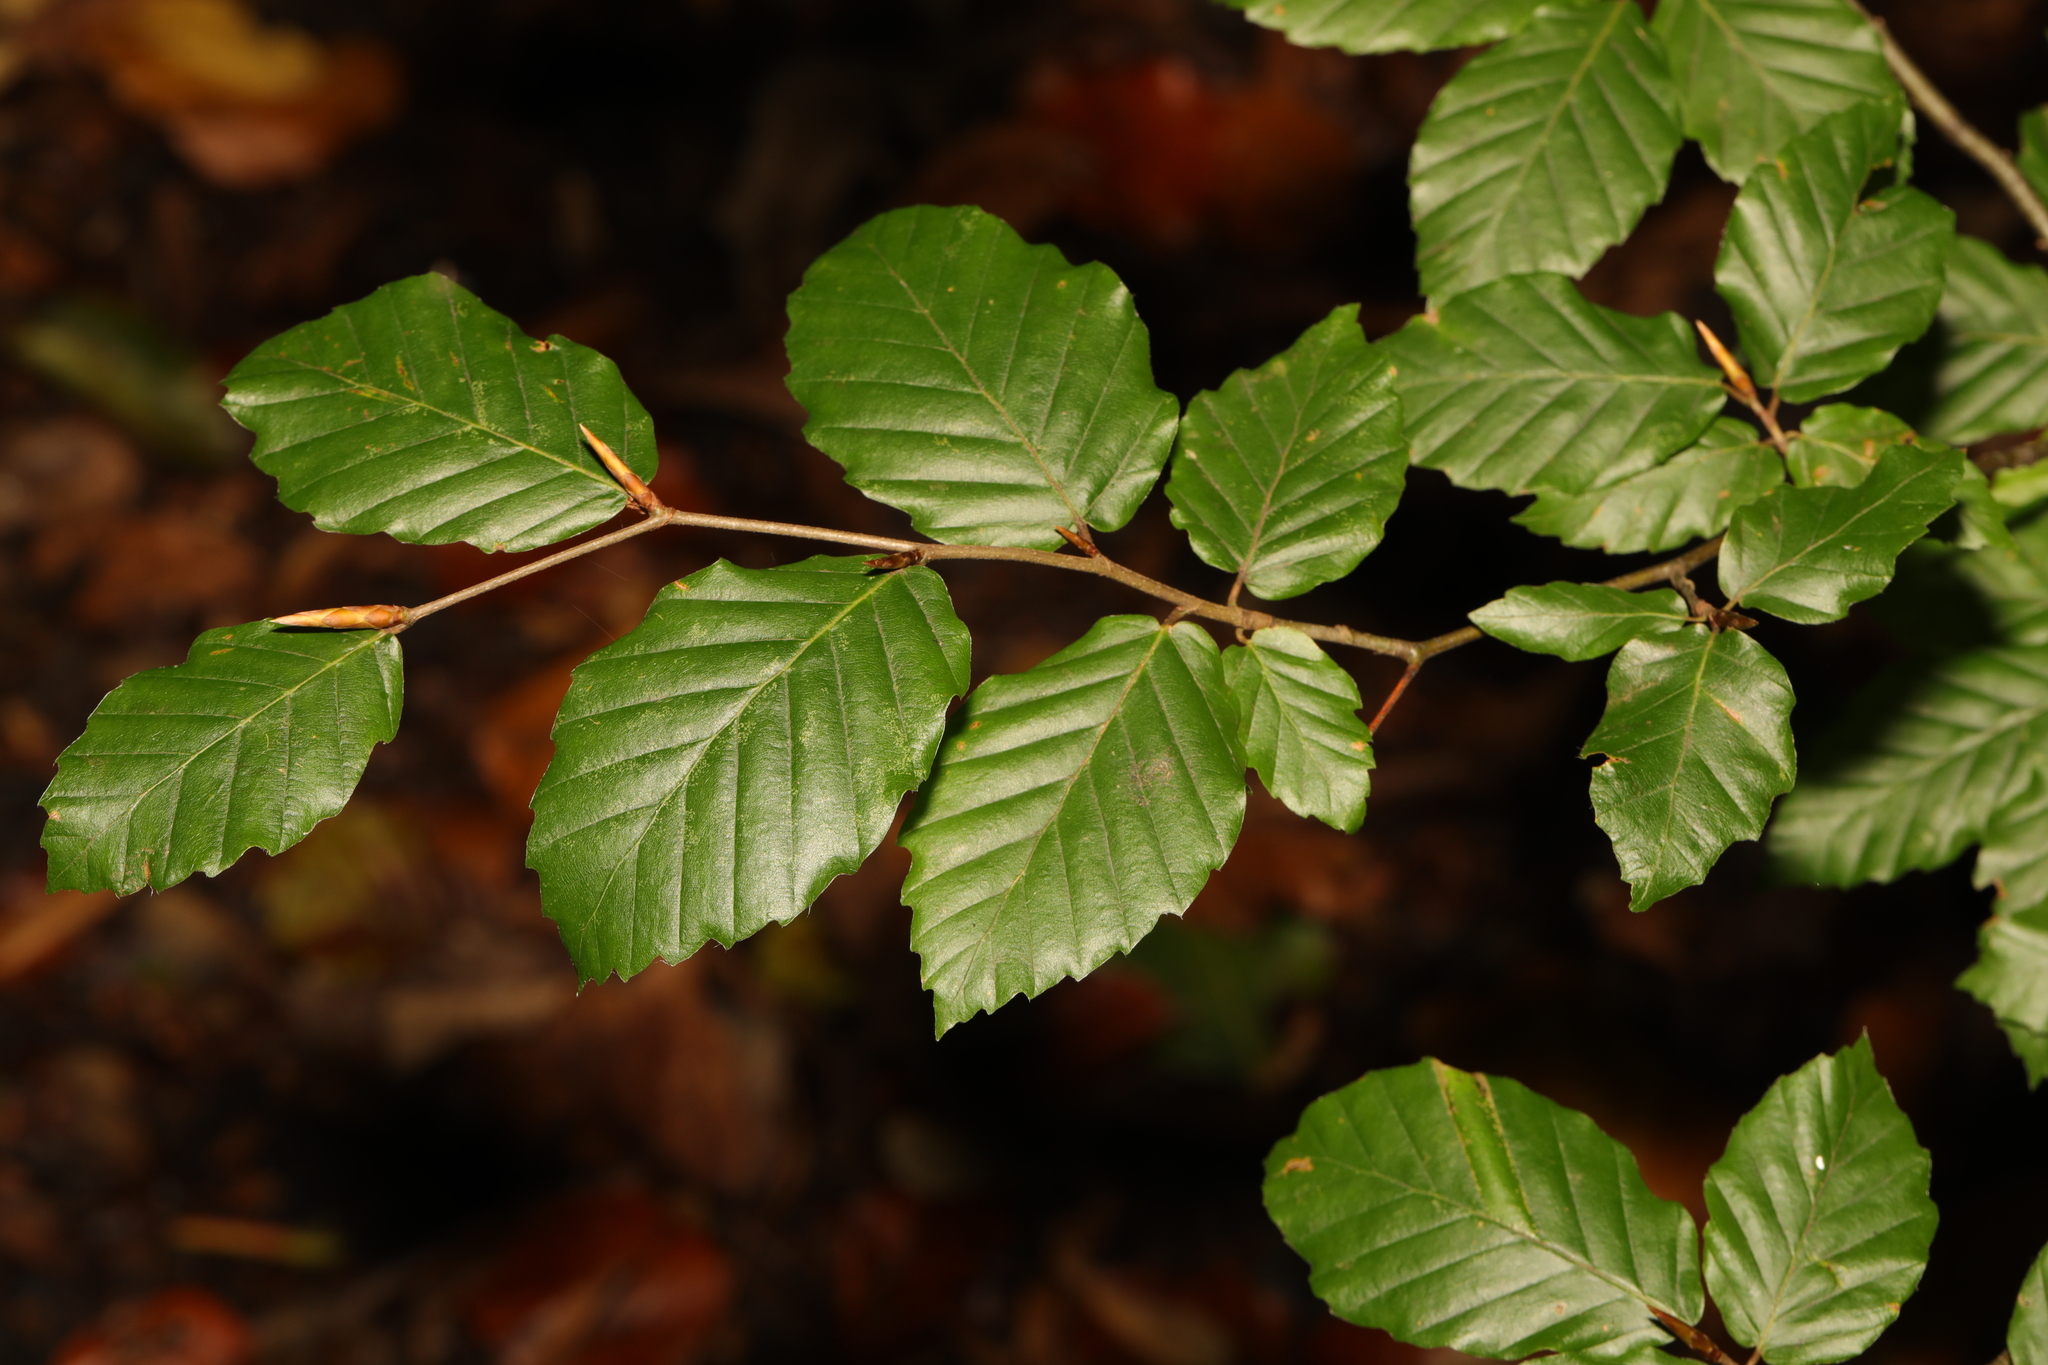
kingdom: Plantae
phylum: Tracheophyta
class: Magnoliopsida
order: Fagales
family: Fagaceae
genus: Fagus
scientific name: Fagus sylvatica
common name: Beech
